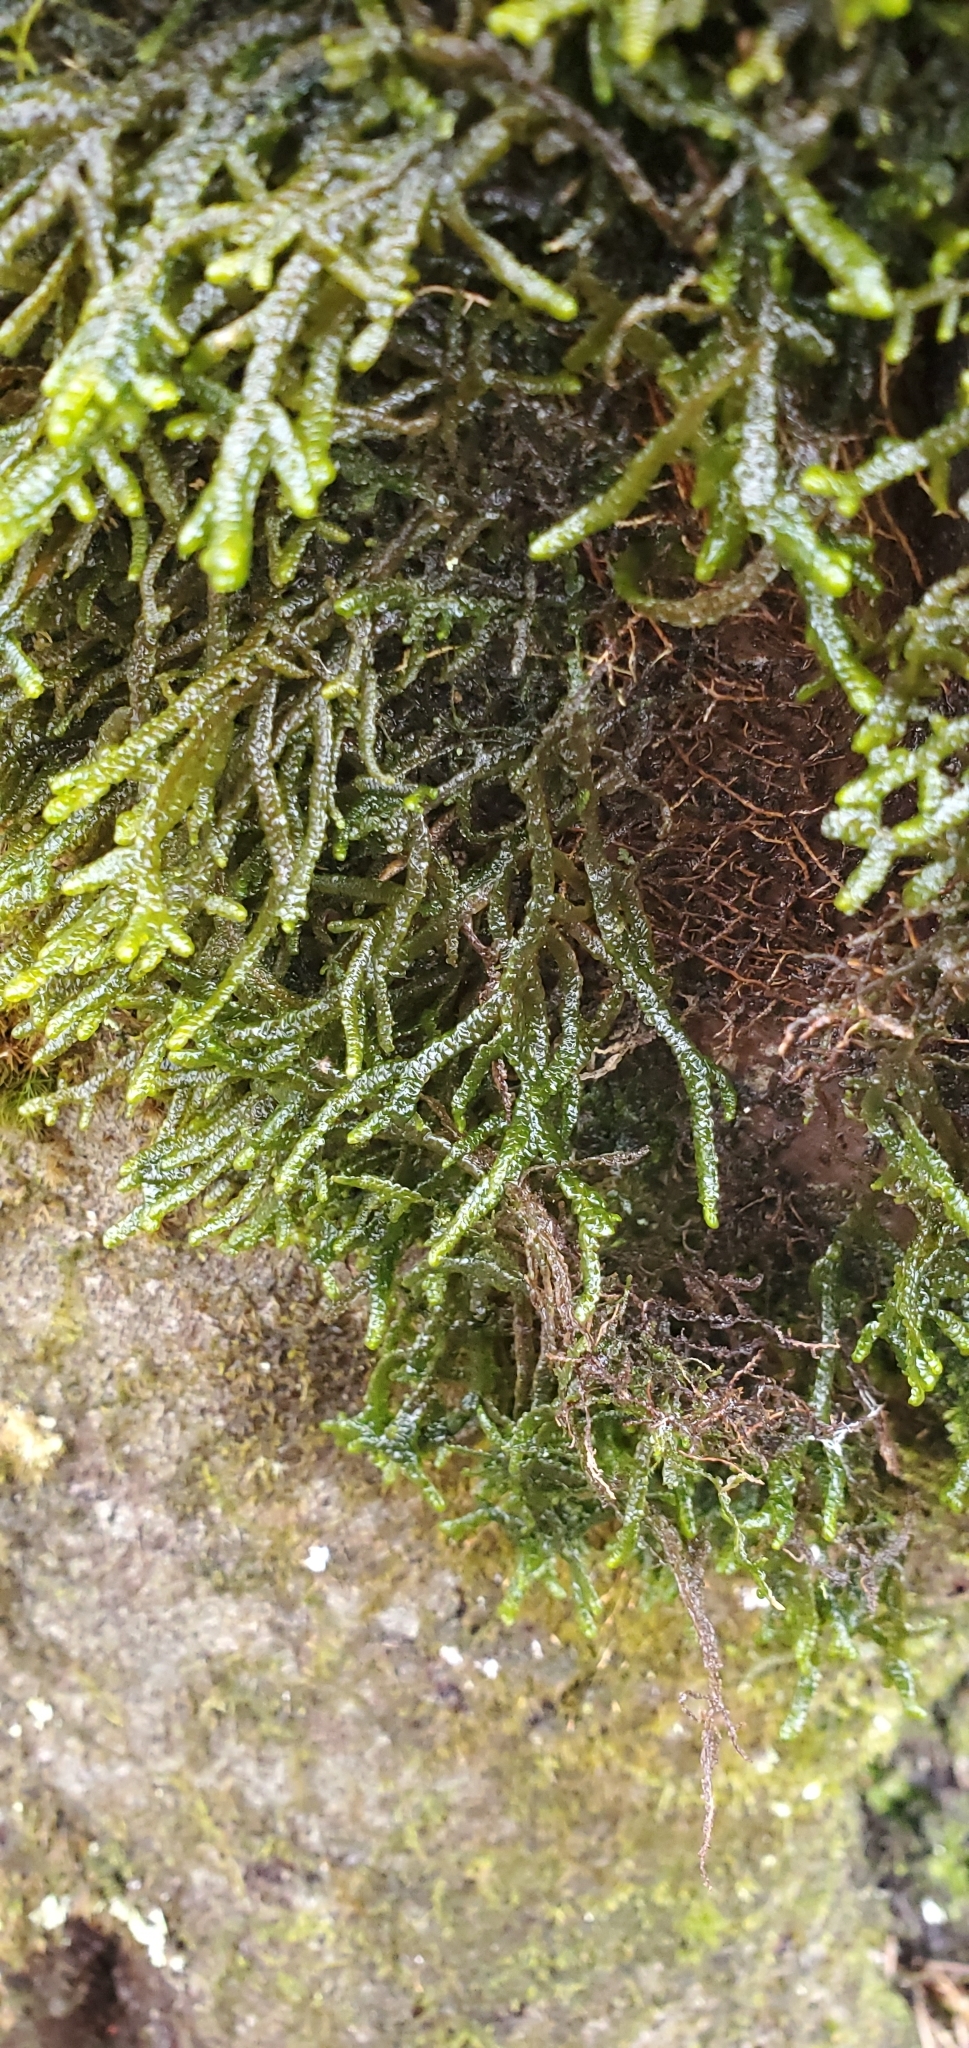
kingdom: Plantae
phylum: Marchantiophyta
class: Jungermanniopsida
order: Porellales
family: Porellaceae
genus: Porella
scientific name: Porella platyphylla
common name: Wall scalewort
